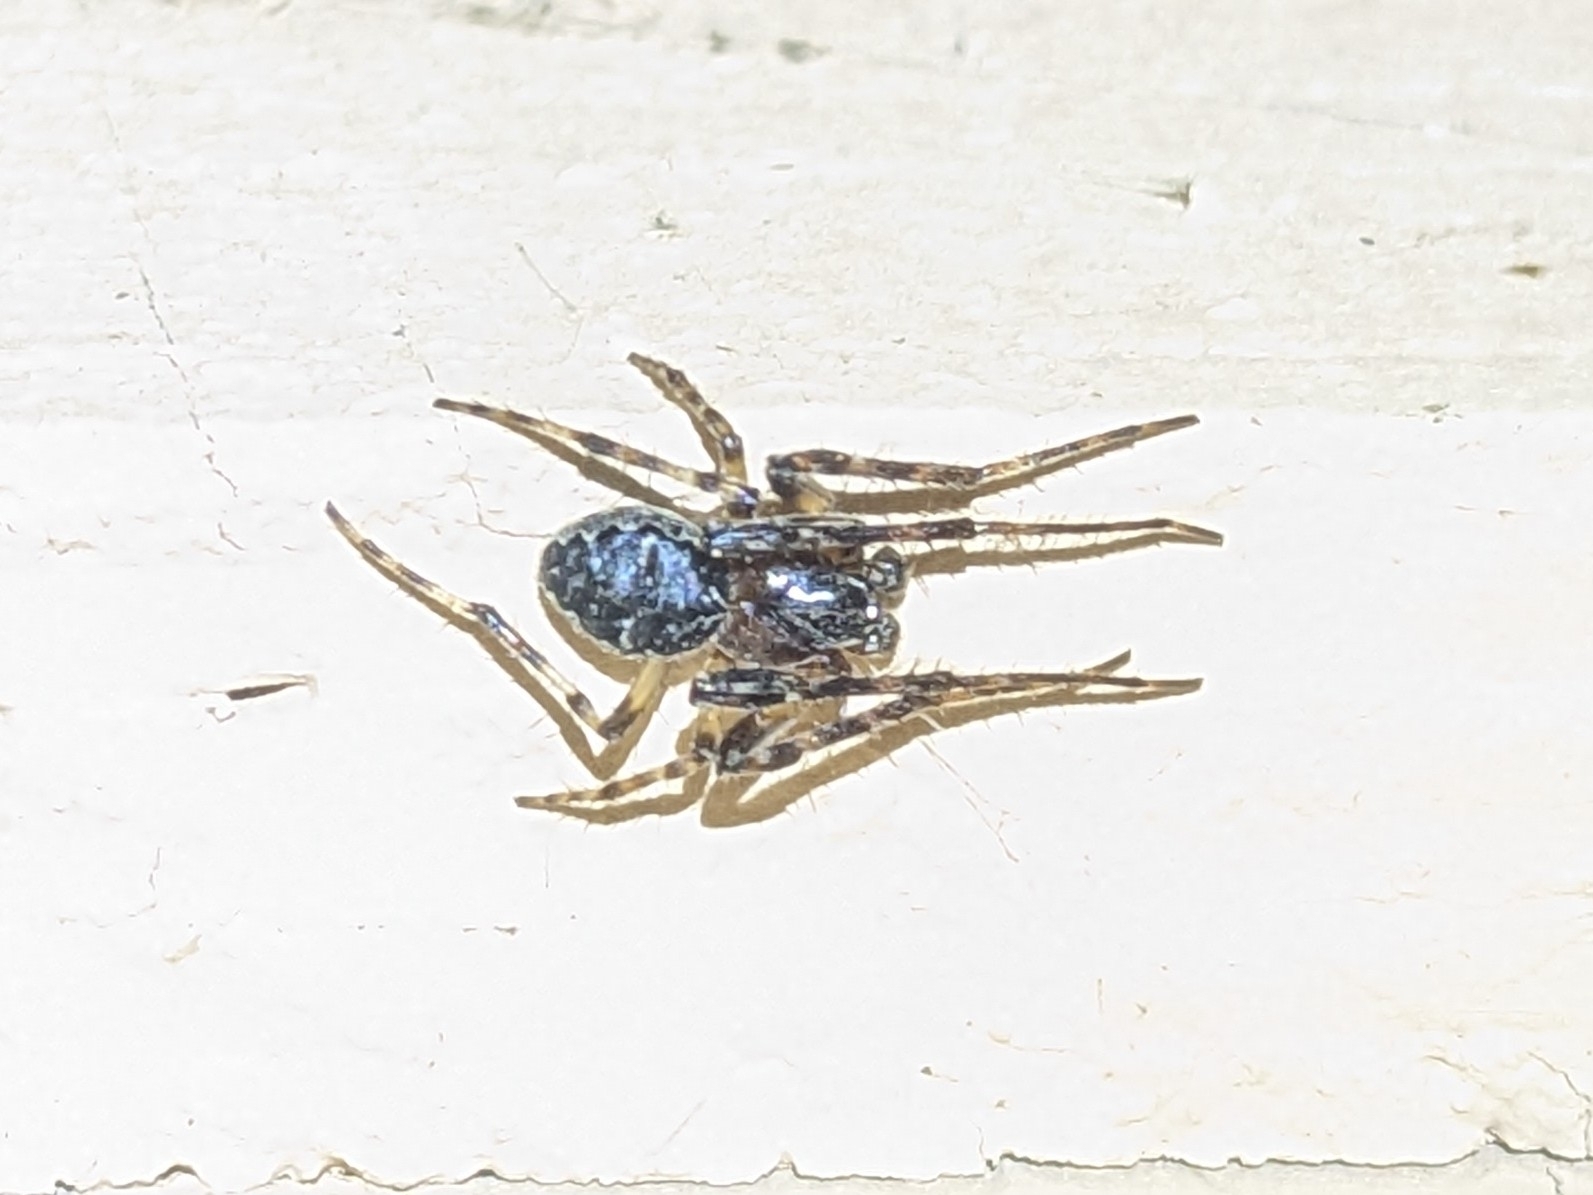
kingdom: Animalia
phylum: Arthropoda
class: Arachnida
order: Araneae
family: Araneidae
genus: Larinioides
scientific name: Larinioides sclopetarius
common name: Bridge orbweaver
